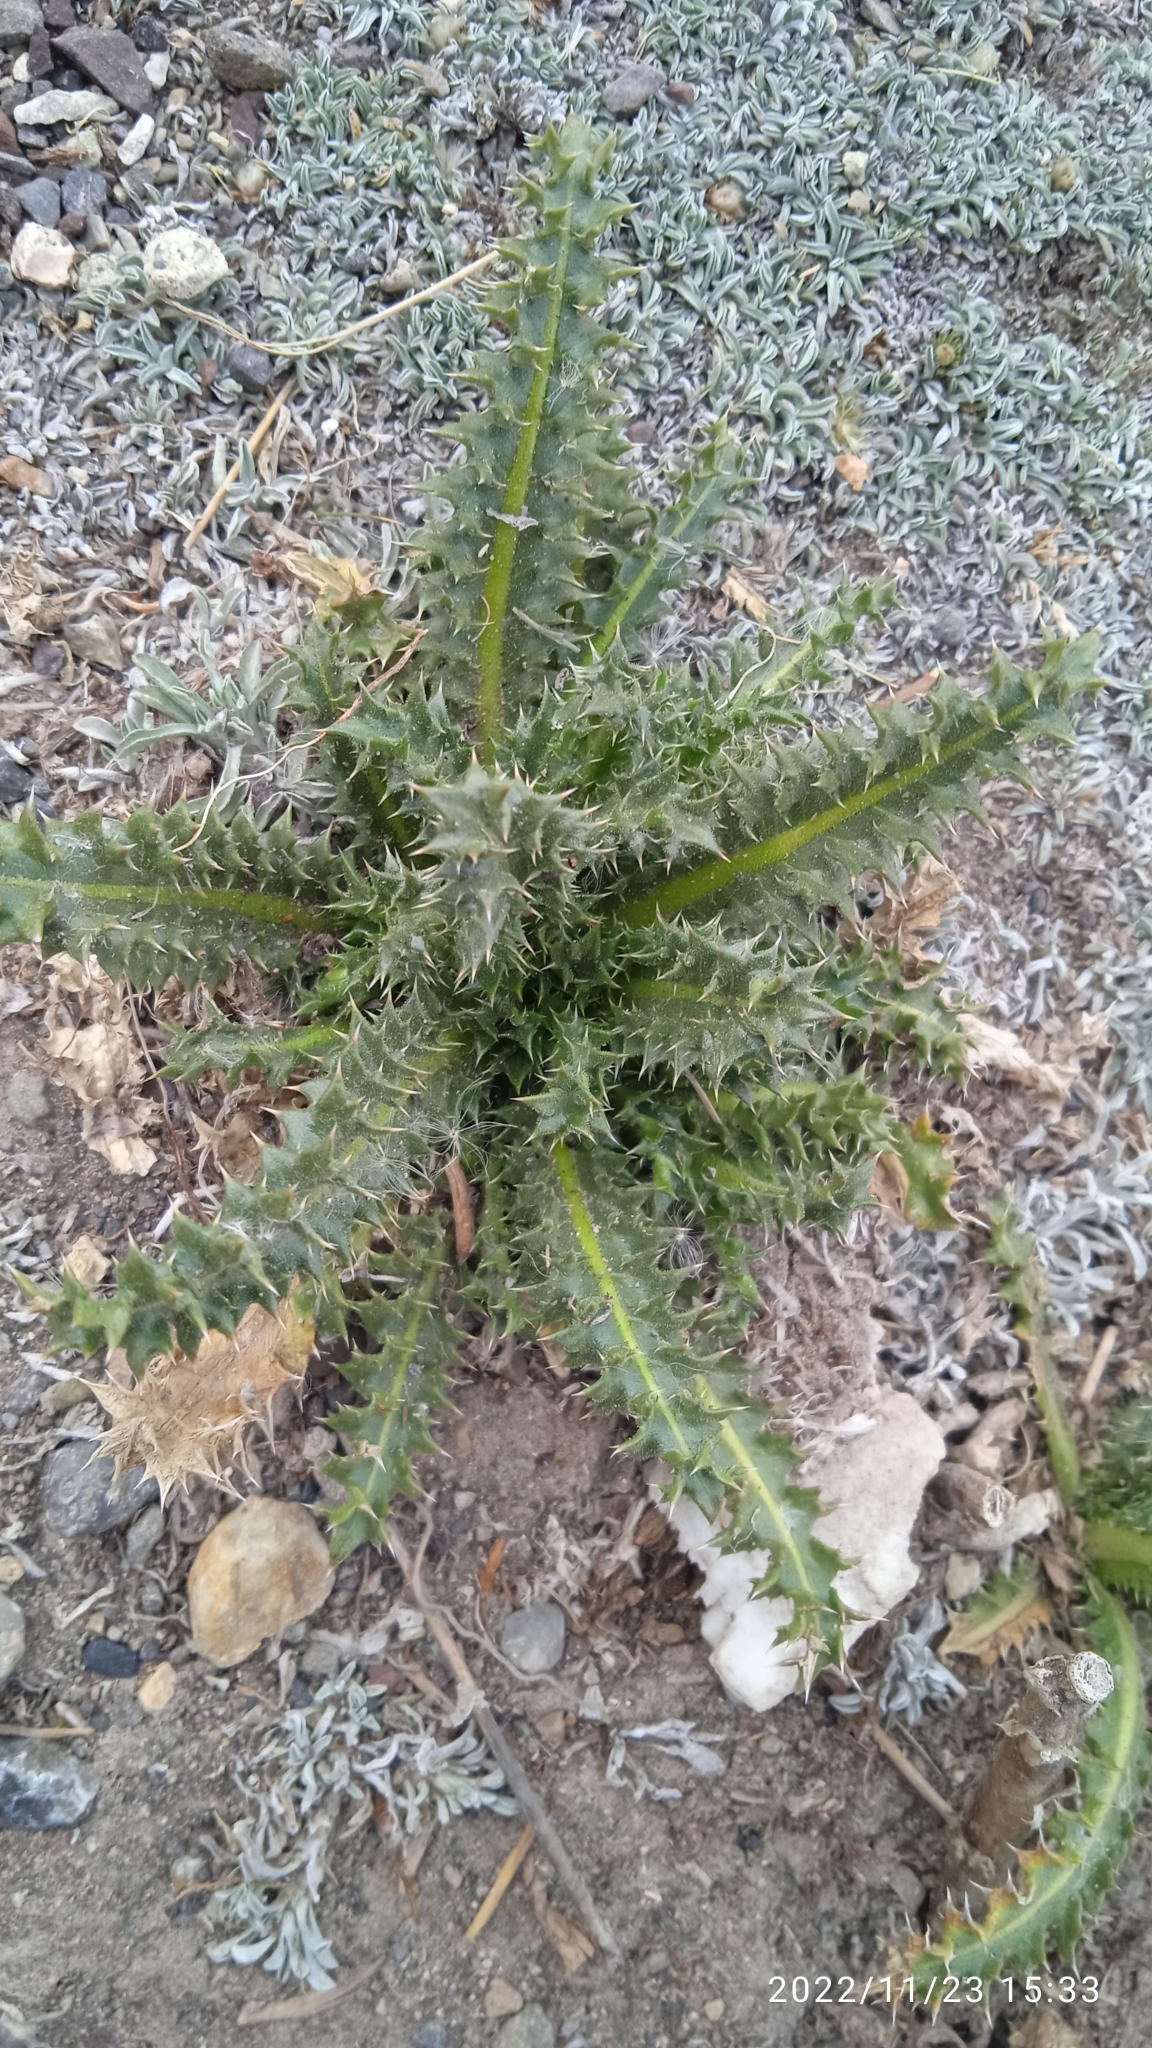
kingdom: Plantae
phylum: Tracheophyta
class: Magnoliopsida
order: Asterales
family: Asteraceae
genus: Perezia
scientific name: Perezia multiflora
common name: Perezia
